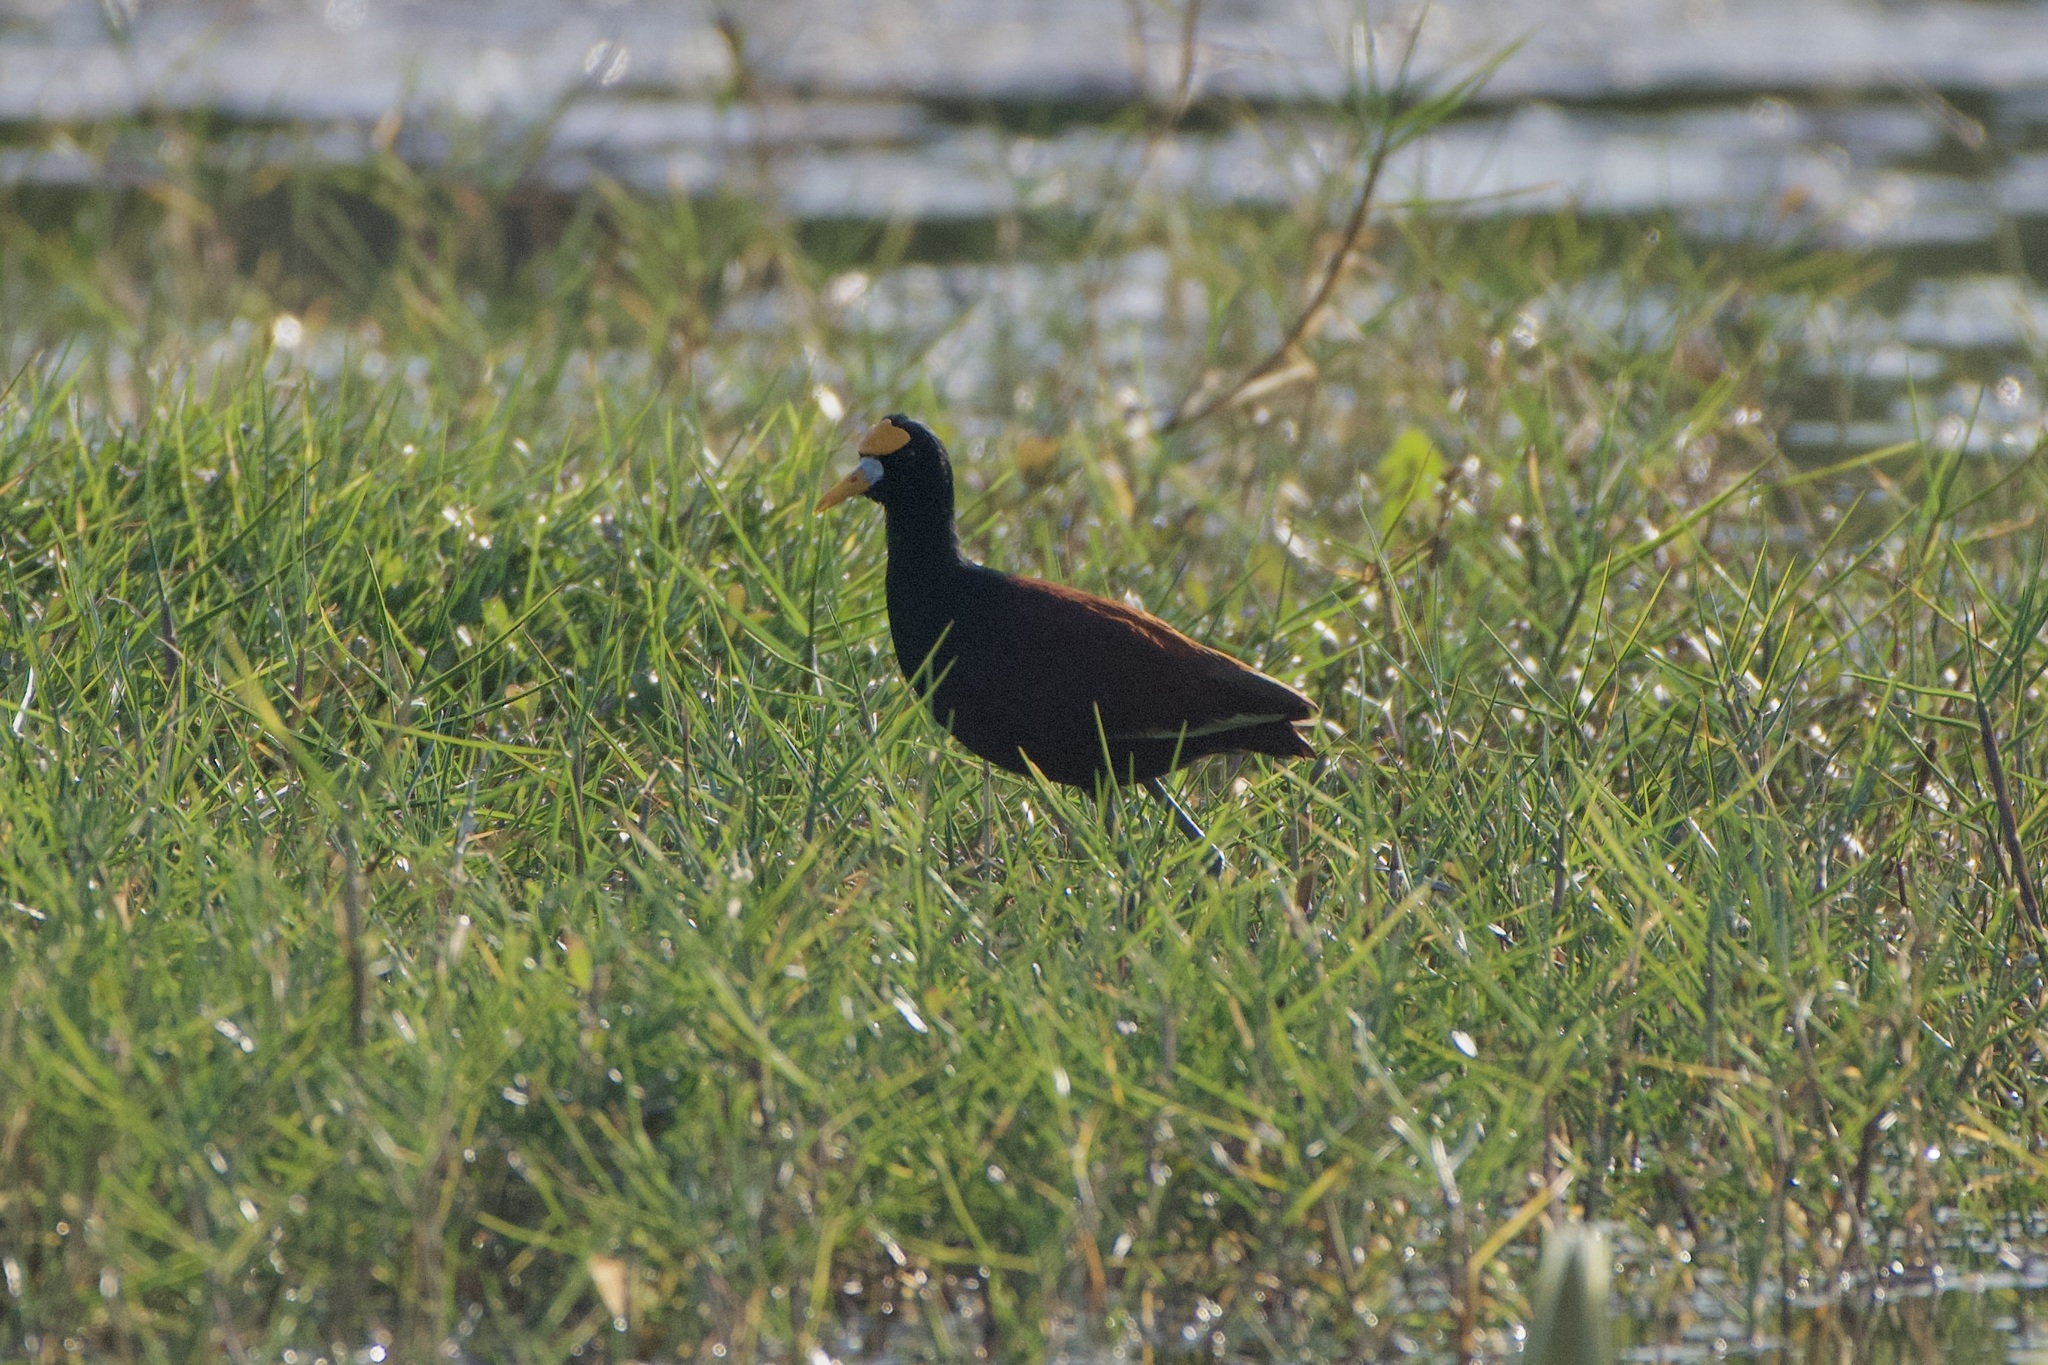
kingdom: Animalia
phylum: Chordata
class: Aves
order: Charadriiformes
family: Jacanidae
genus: Jacana
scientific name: Jacana spinosa
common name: Northern jacana
